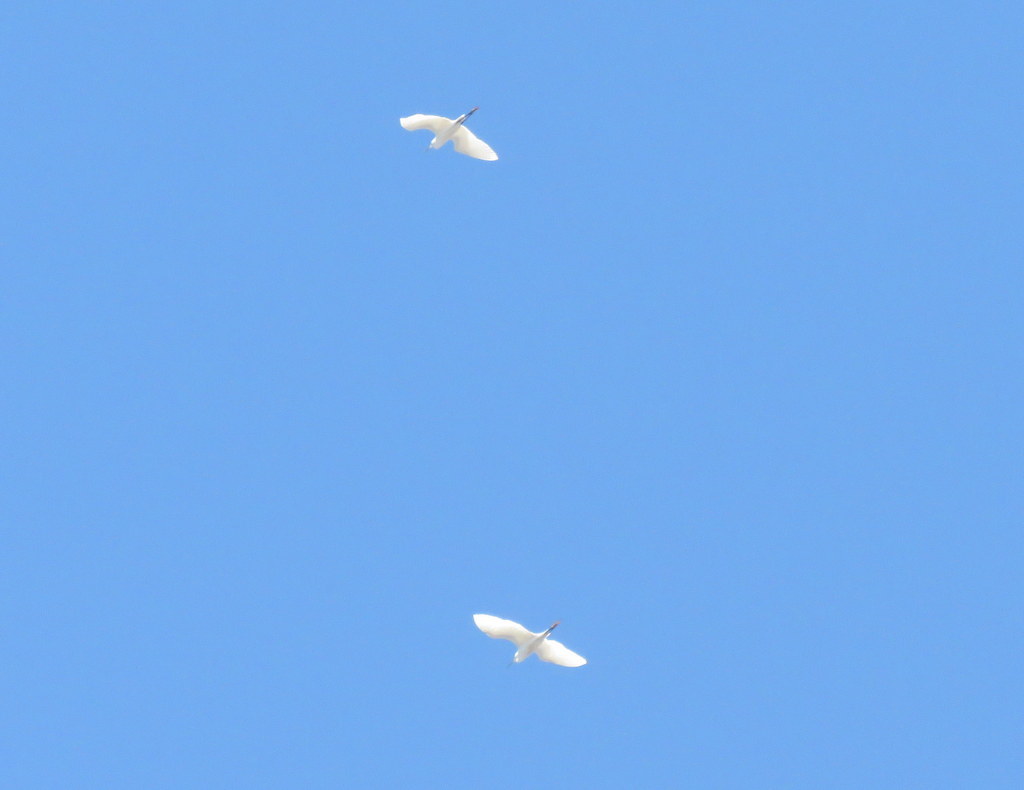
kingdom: Animalia
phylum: Chordata
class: Aves
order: Pelecaniformes
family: Ardeidae
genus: Egretta
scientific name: Egretta thula
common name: Snowy egret
